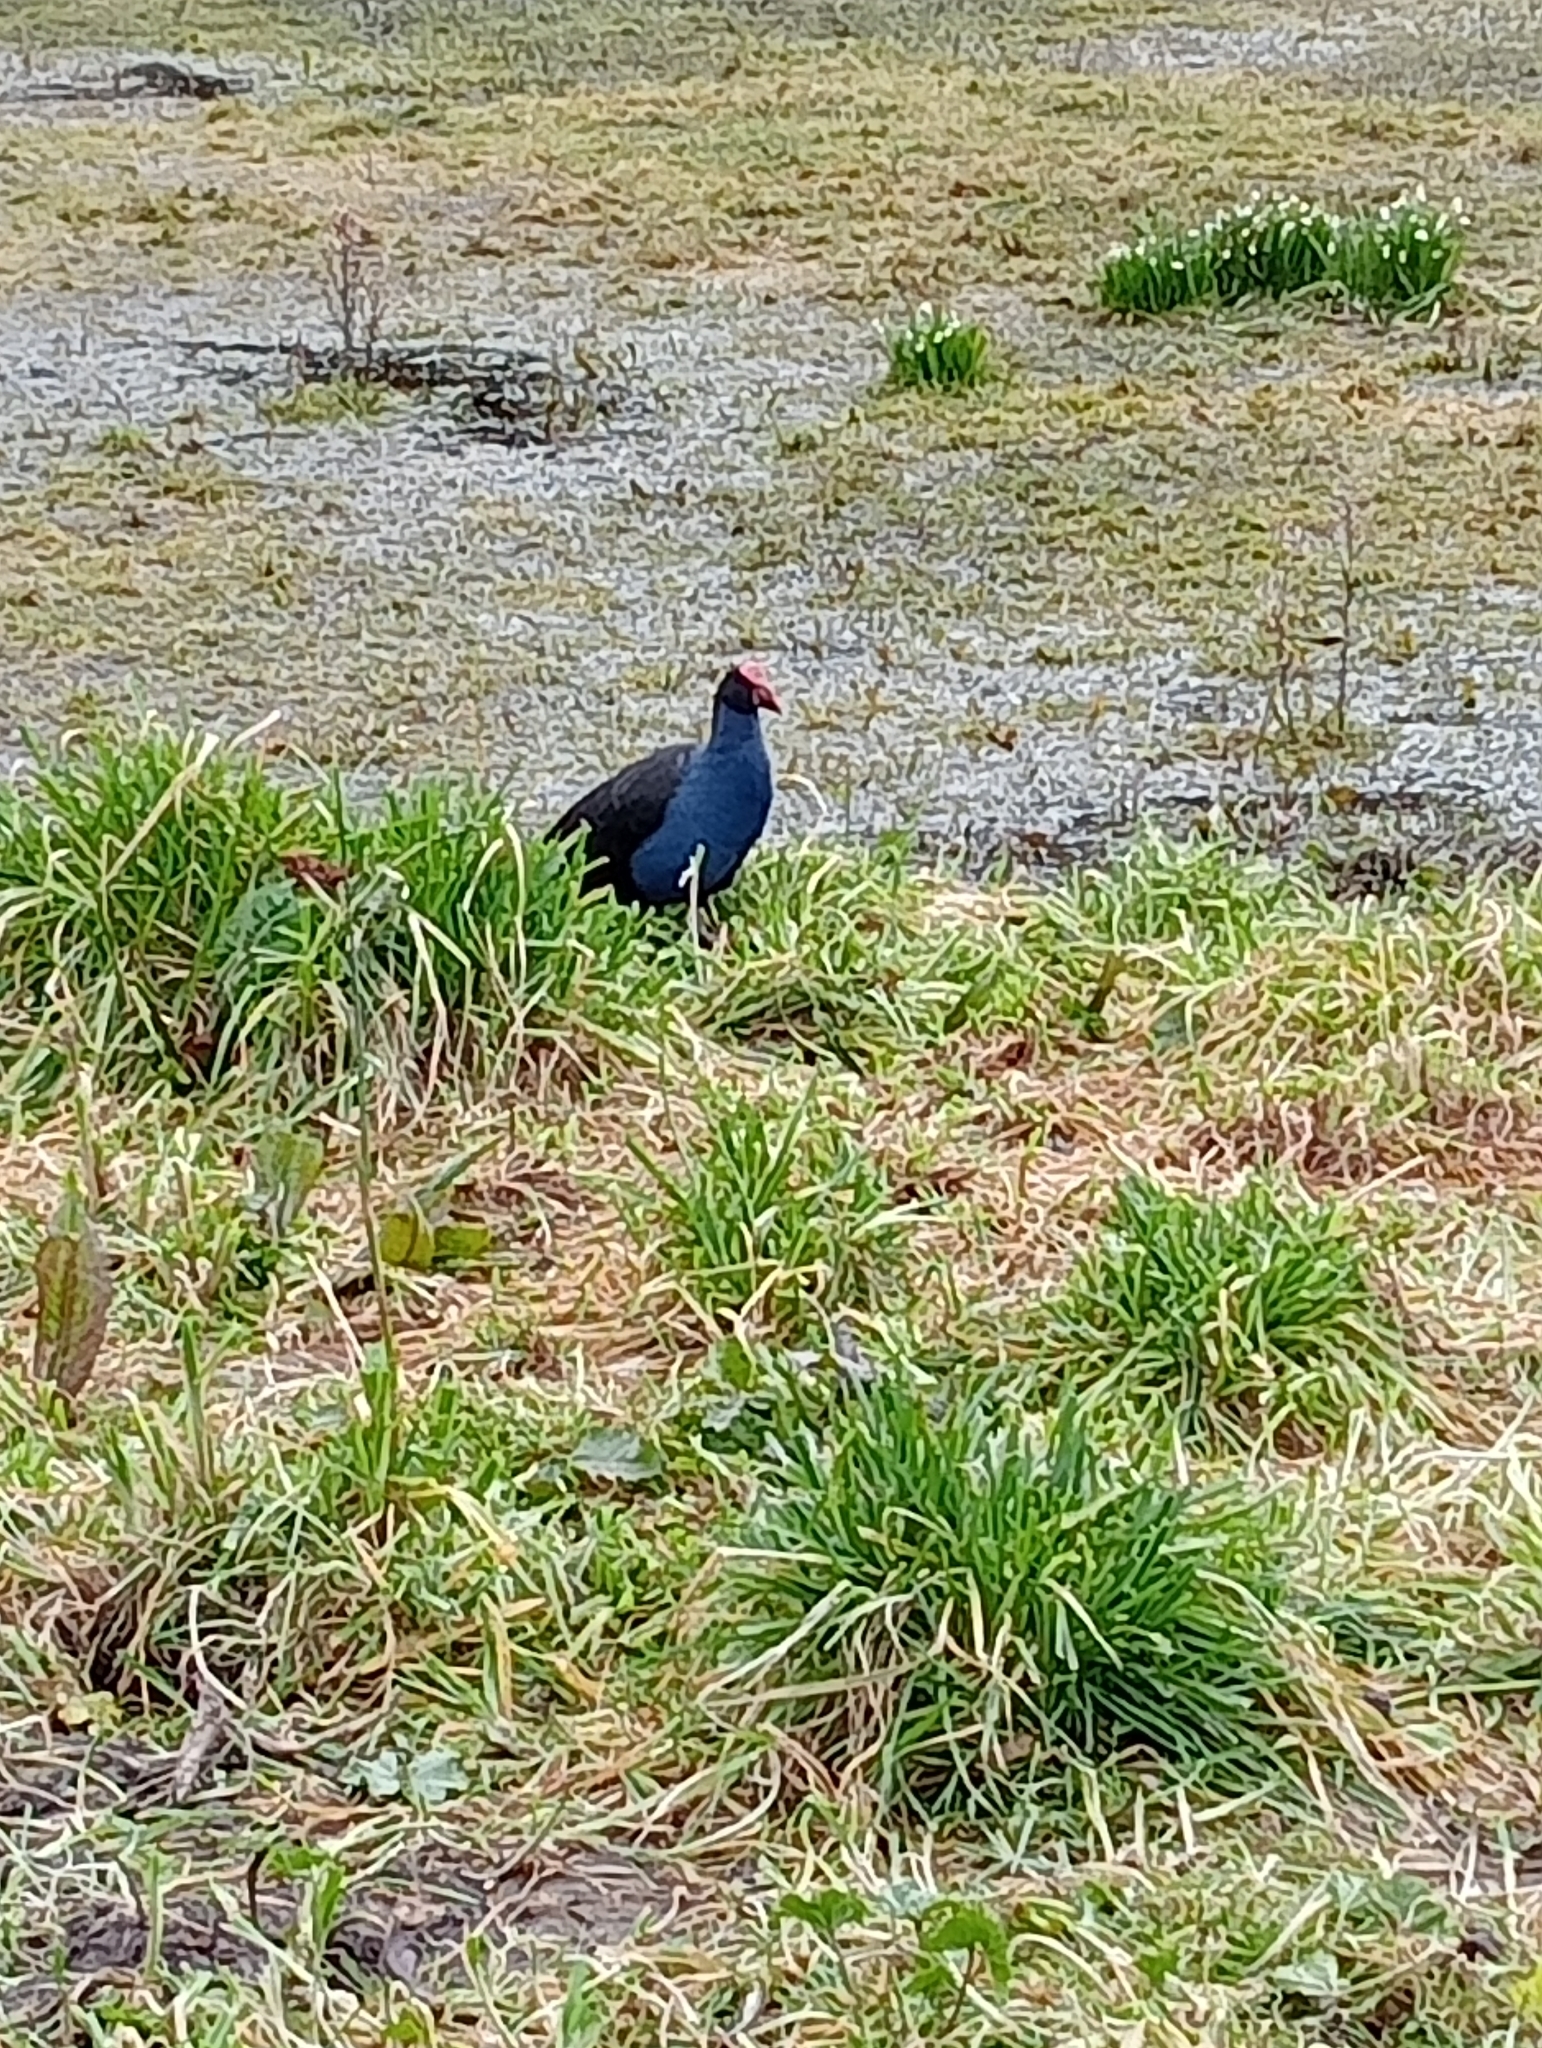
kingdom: Animalia
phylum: Chordata
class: Aves
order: Gruiformes
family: Rallidae
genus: Porphyrio
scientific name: Porphyrio melanotus
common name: Australasian swamphen
